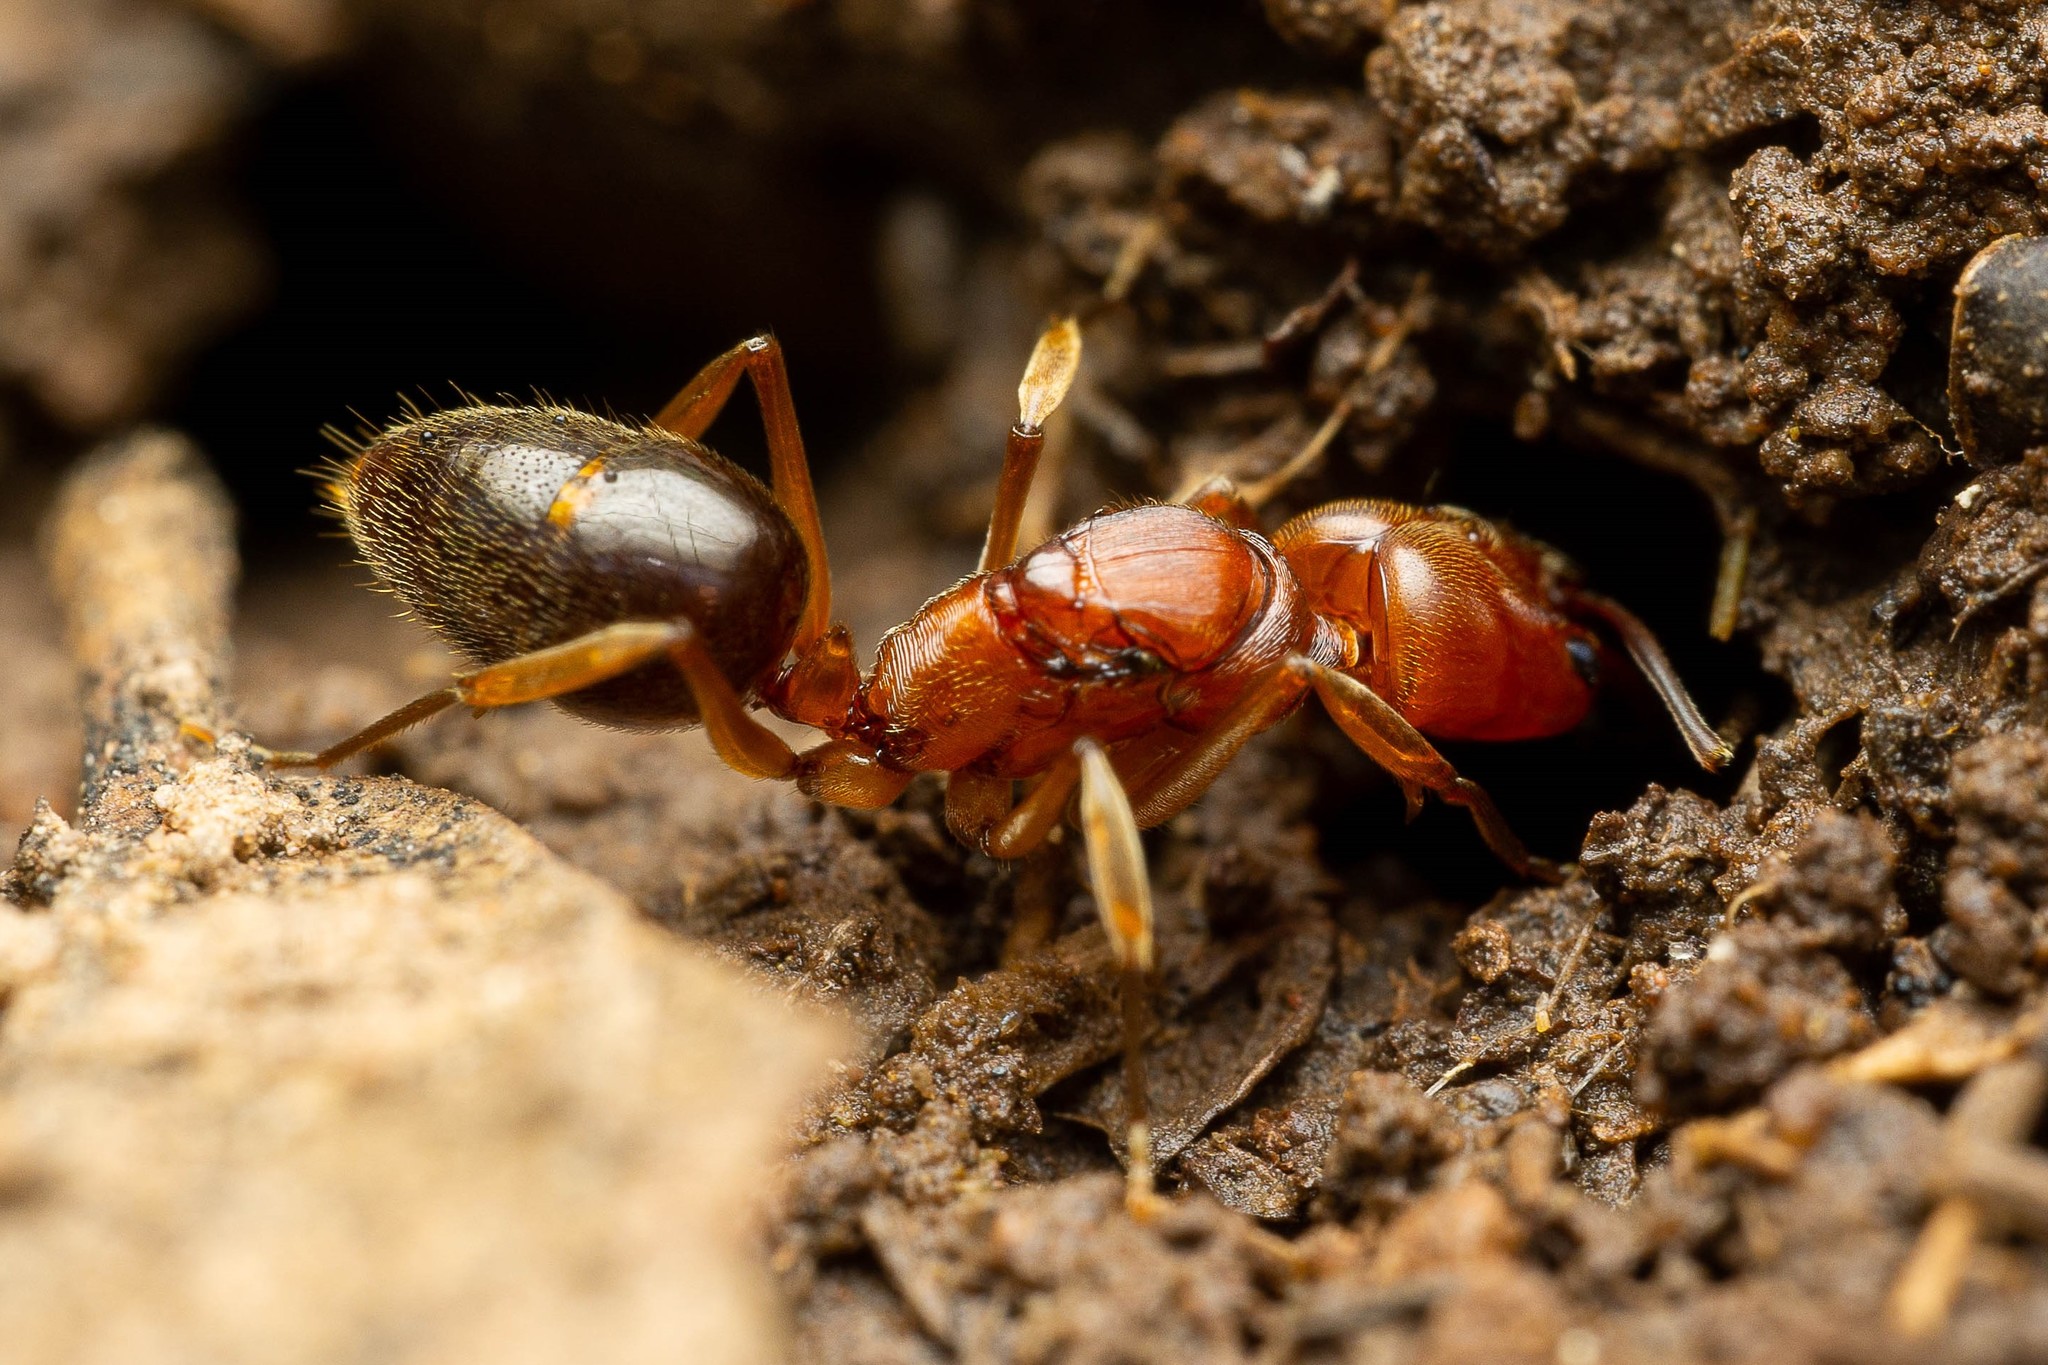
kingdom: Animalia
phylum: Arthropoda
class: Insecta
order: Hymenoptera
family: Formicidae
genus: Odontomachus
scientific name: Odontomachus clarus
